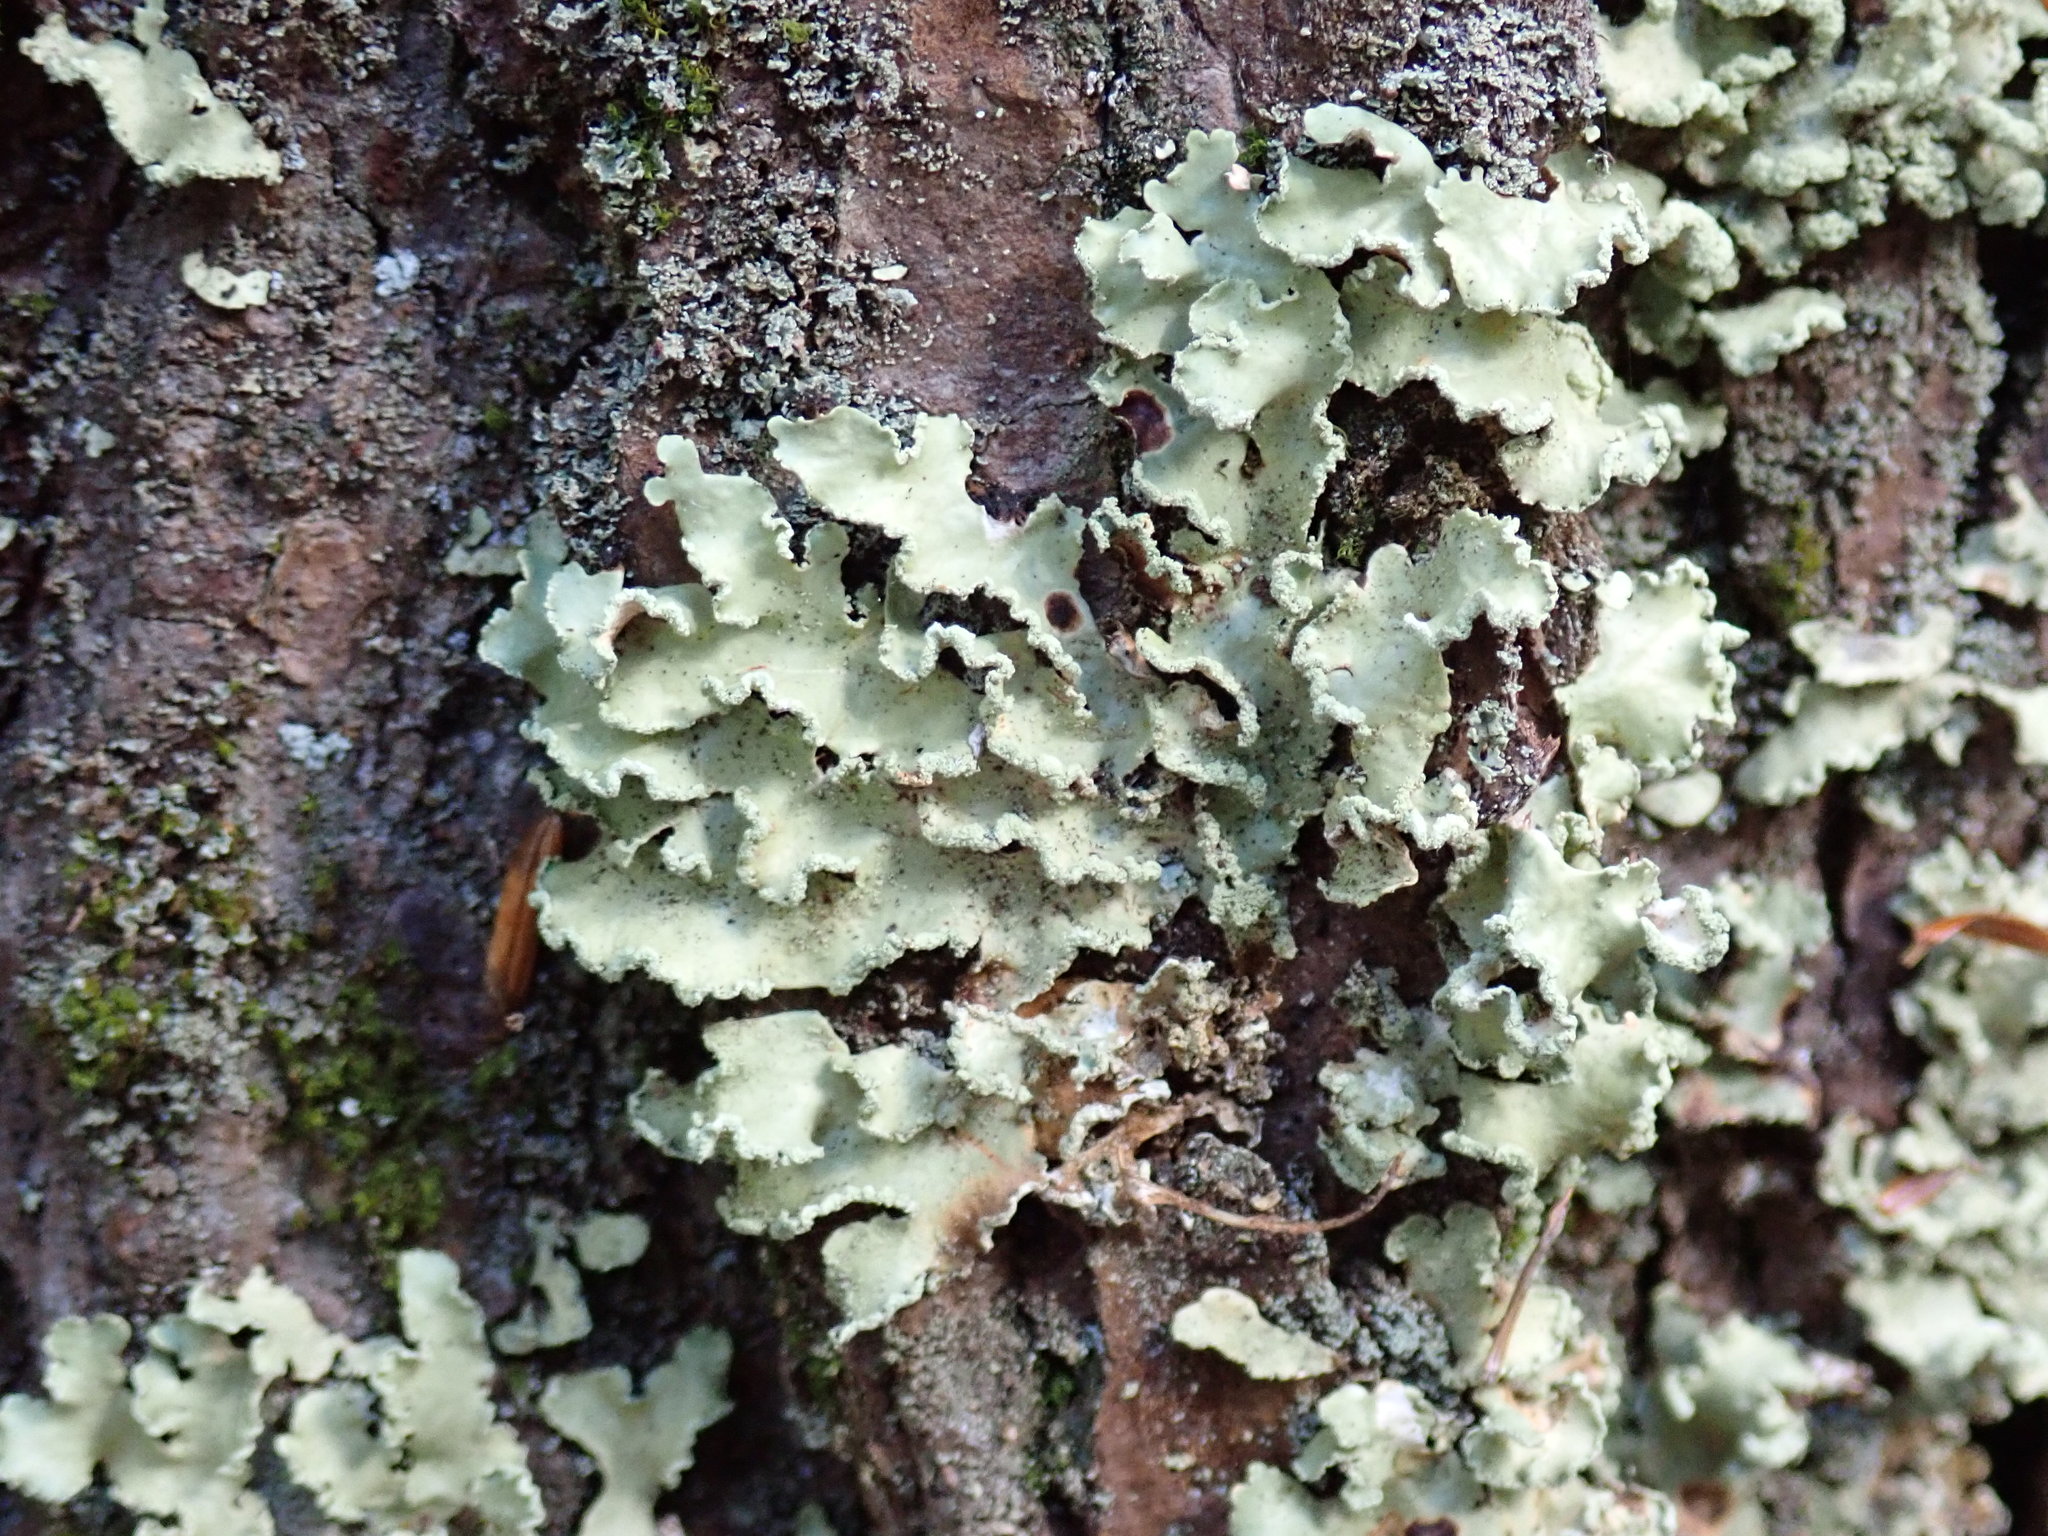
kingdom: Fungi
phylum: Ascomycota
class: Lecanoromycetes
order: Lecanorales
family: Parmeliaceae
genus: Usnocetraria
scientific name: Usnocetraria oakesiana
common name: Yellow ribbon lichen
